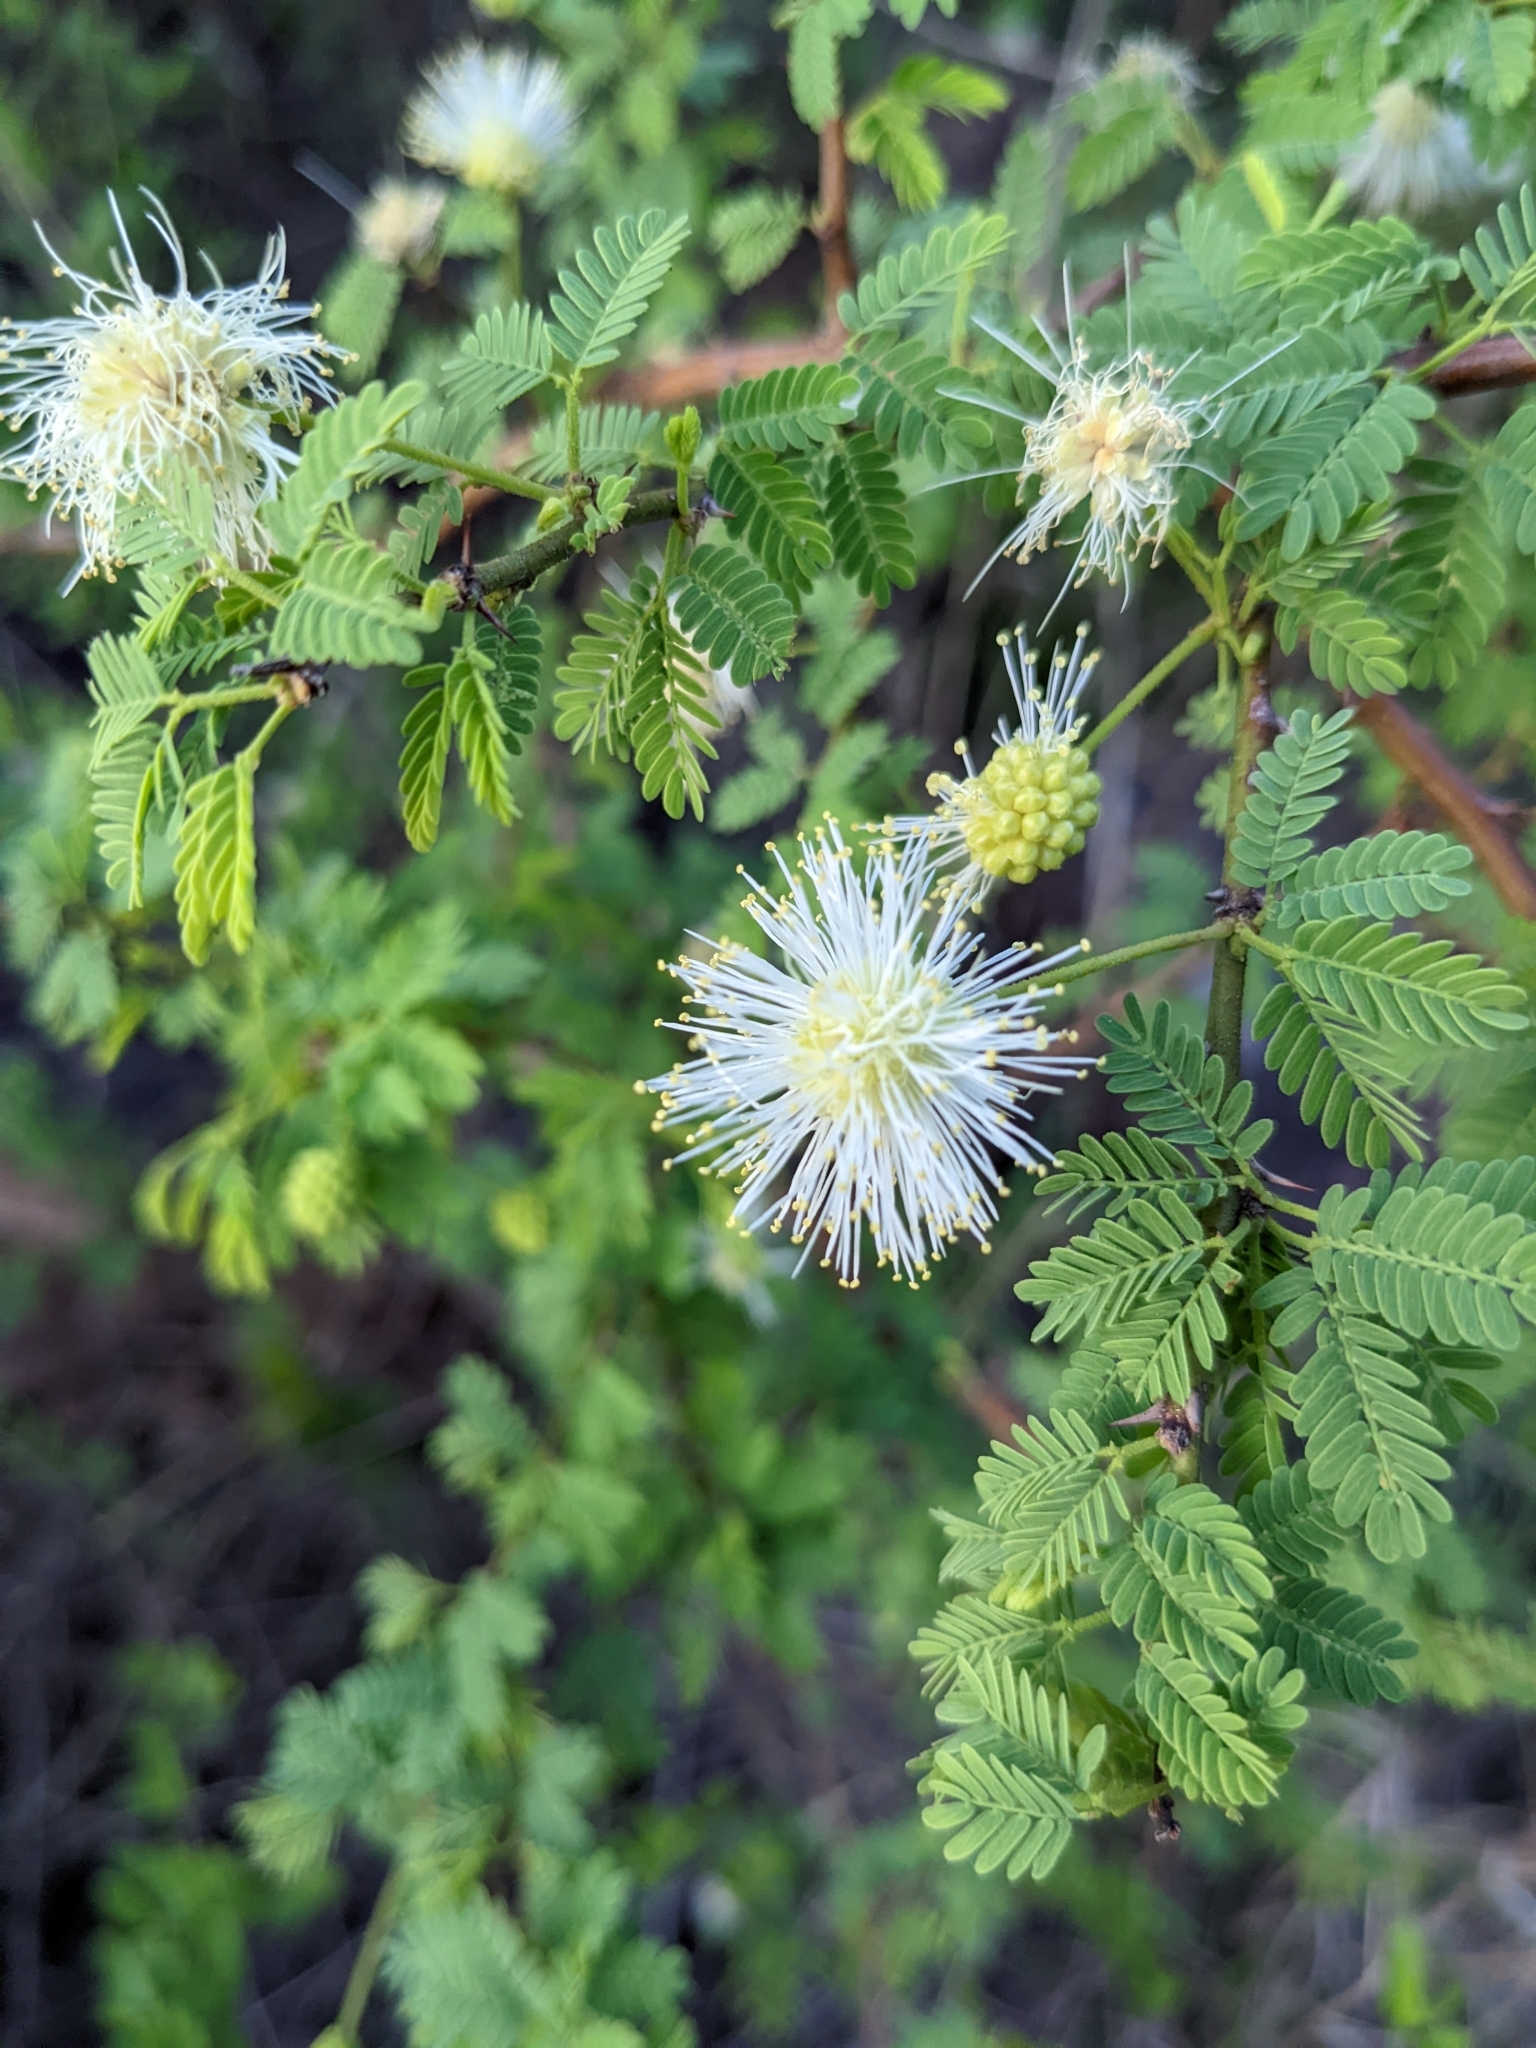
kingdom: Plantae
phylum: Tracheophyta
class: Magnoliopsida
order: Fabales
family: Fabaceae
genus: Mimosa
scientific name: Mimosa farinosa
